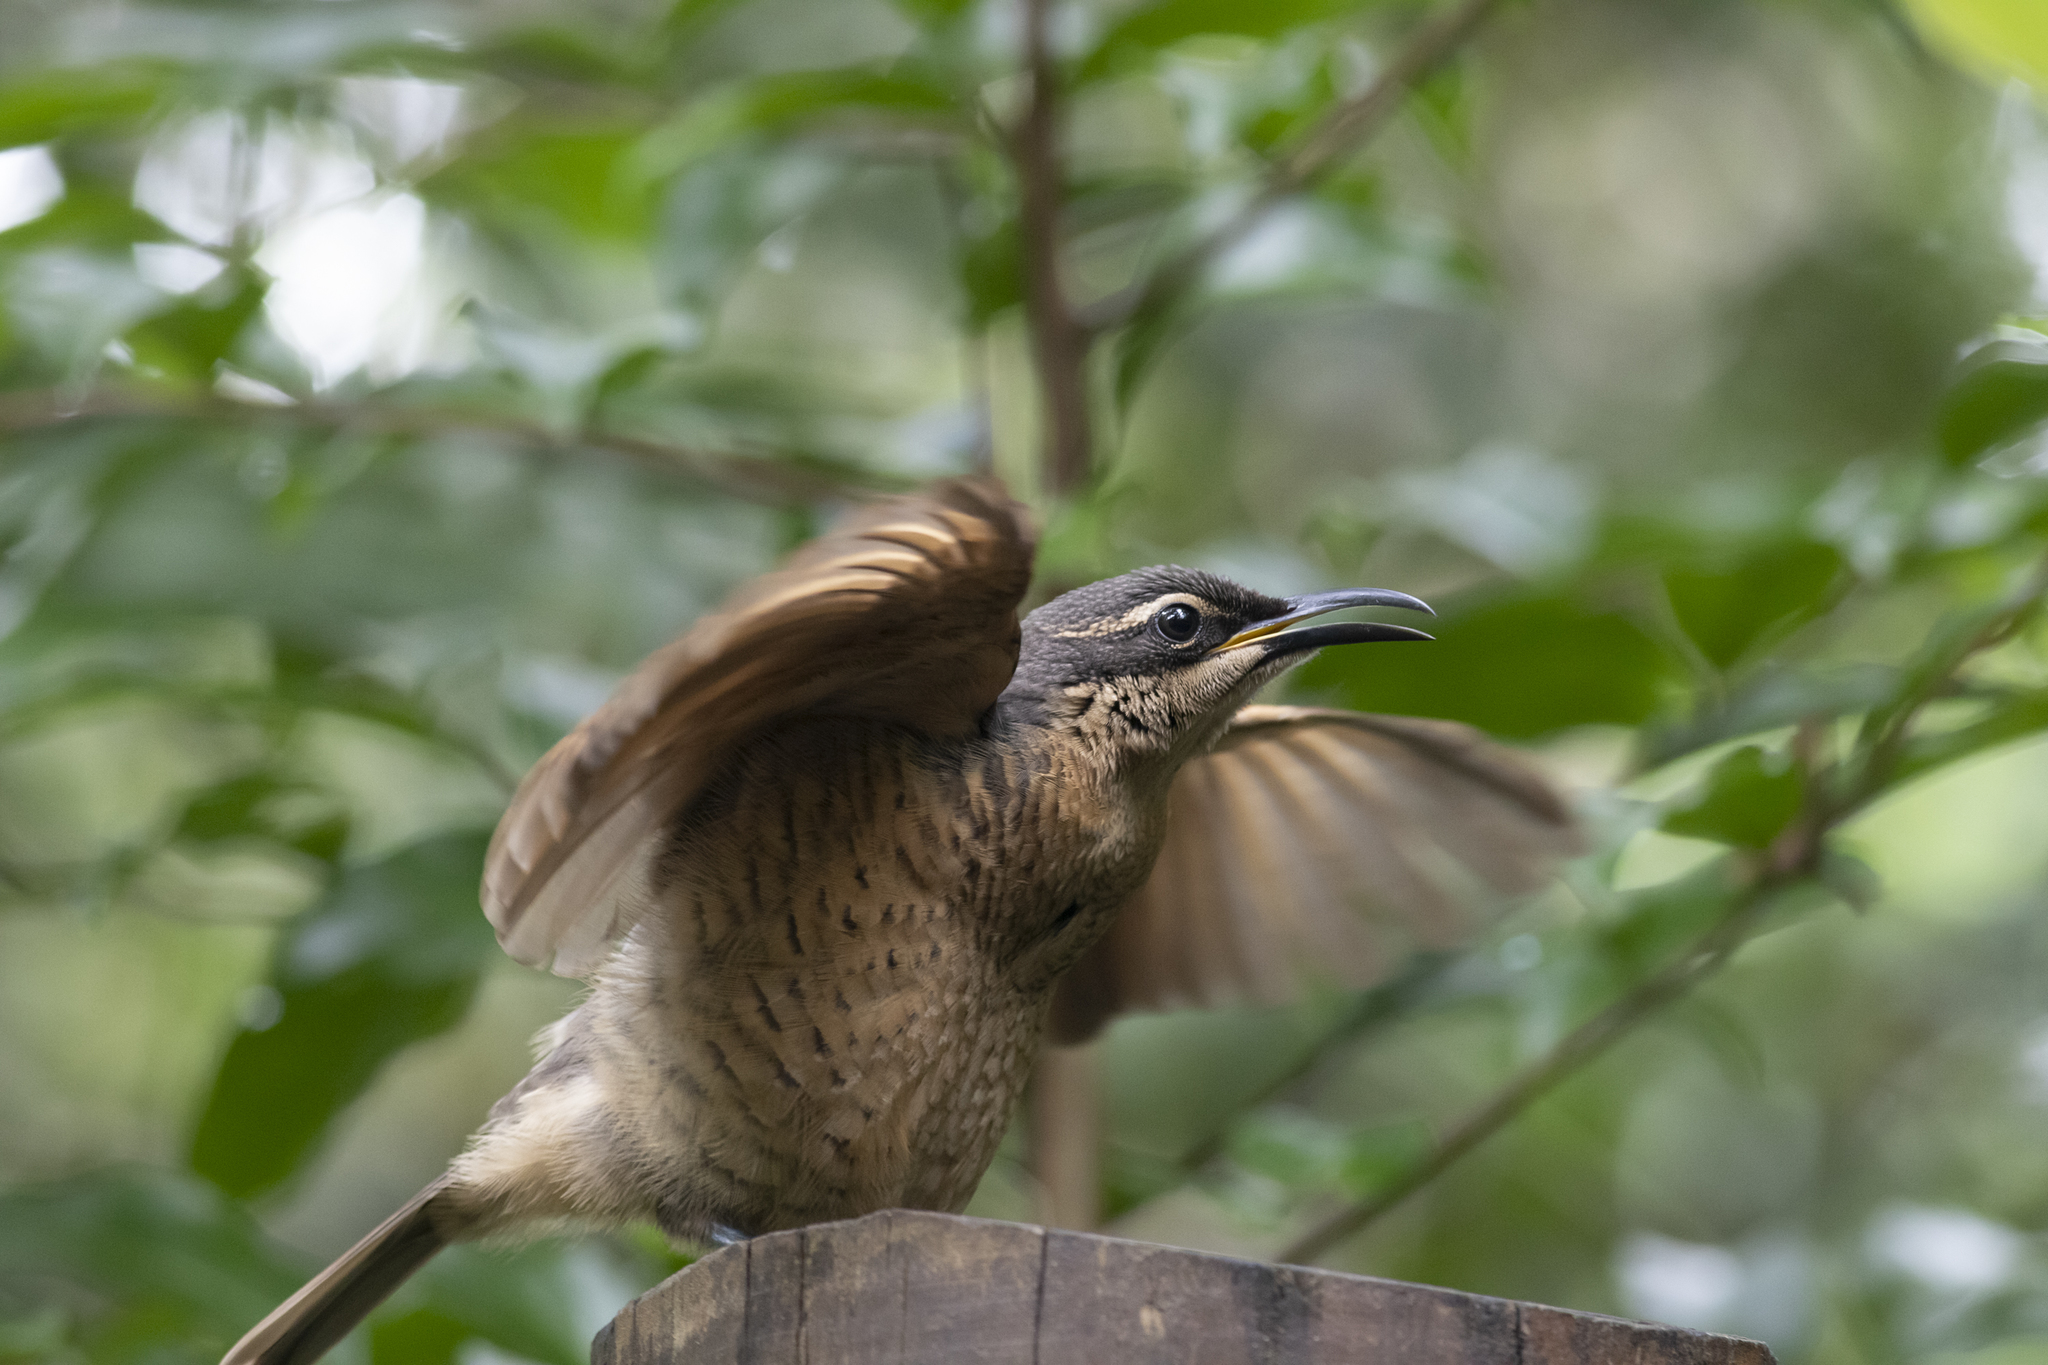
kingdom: Animalia
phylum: Chordata
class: Aves
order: Passeriformes
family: Paradisaeidae
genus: Ptiloris
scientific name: Ptiloris victoriae
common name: Victoria's riflebird
